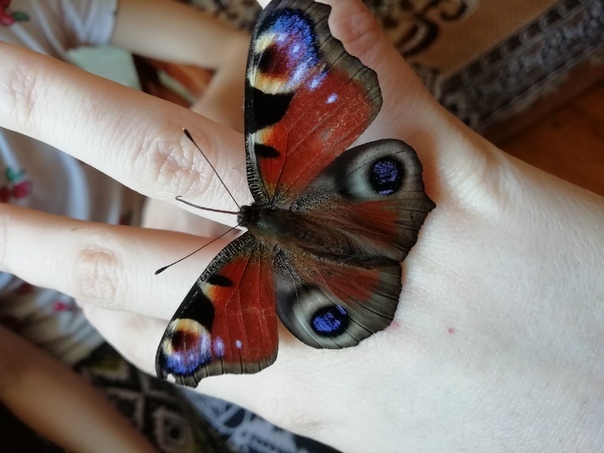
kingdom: Animalia
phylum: Arthropoda
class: Insecta
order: Lepidoptera
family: Nymphalidae
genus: Aglais
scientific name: Aglais io
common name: Peacock
